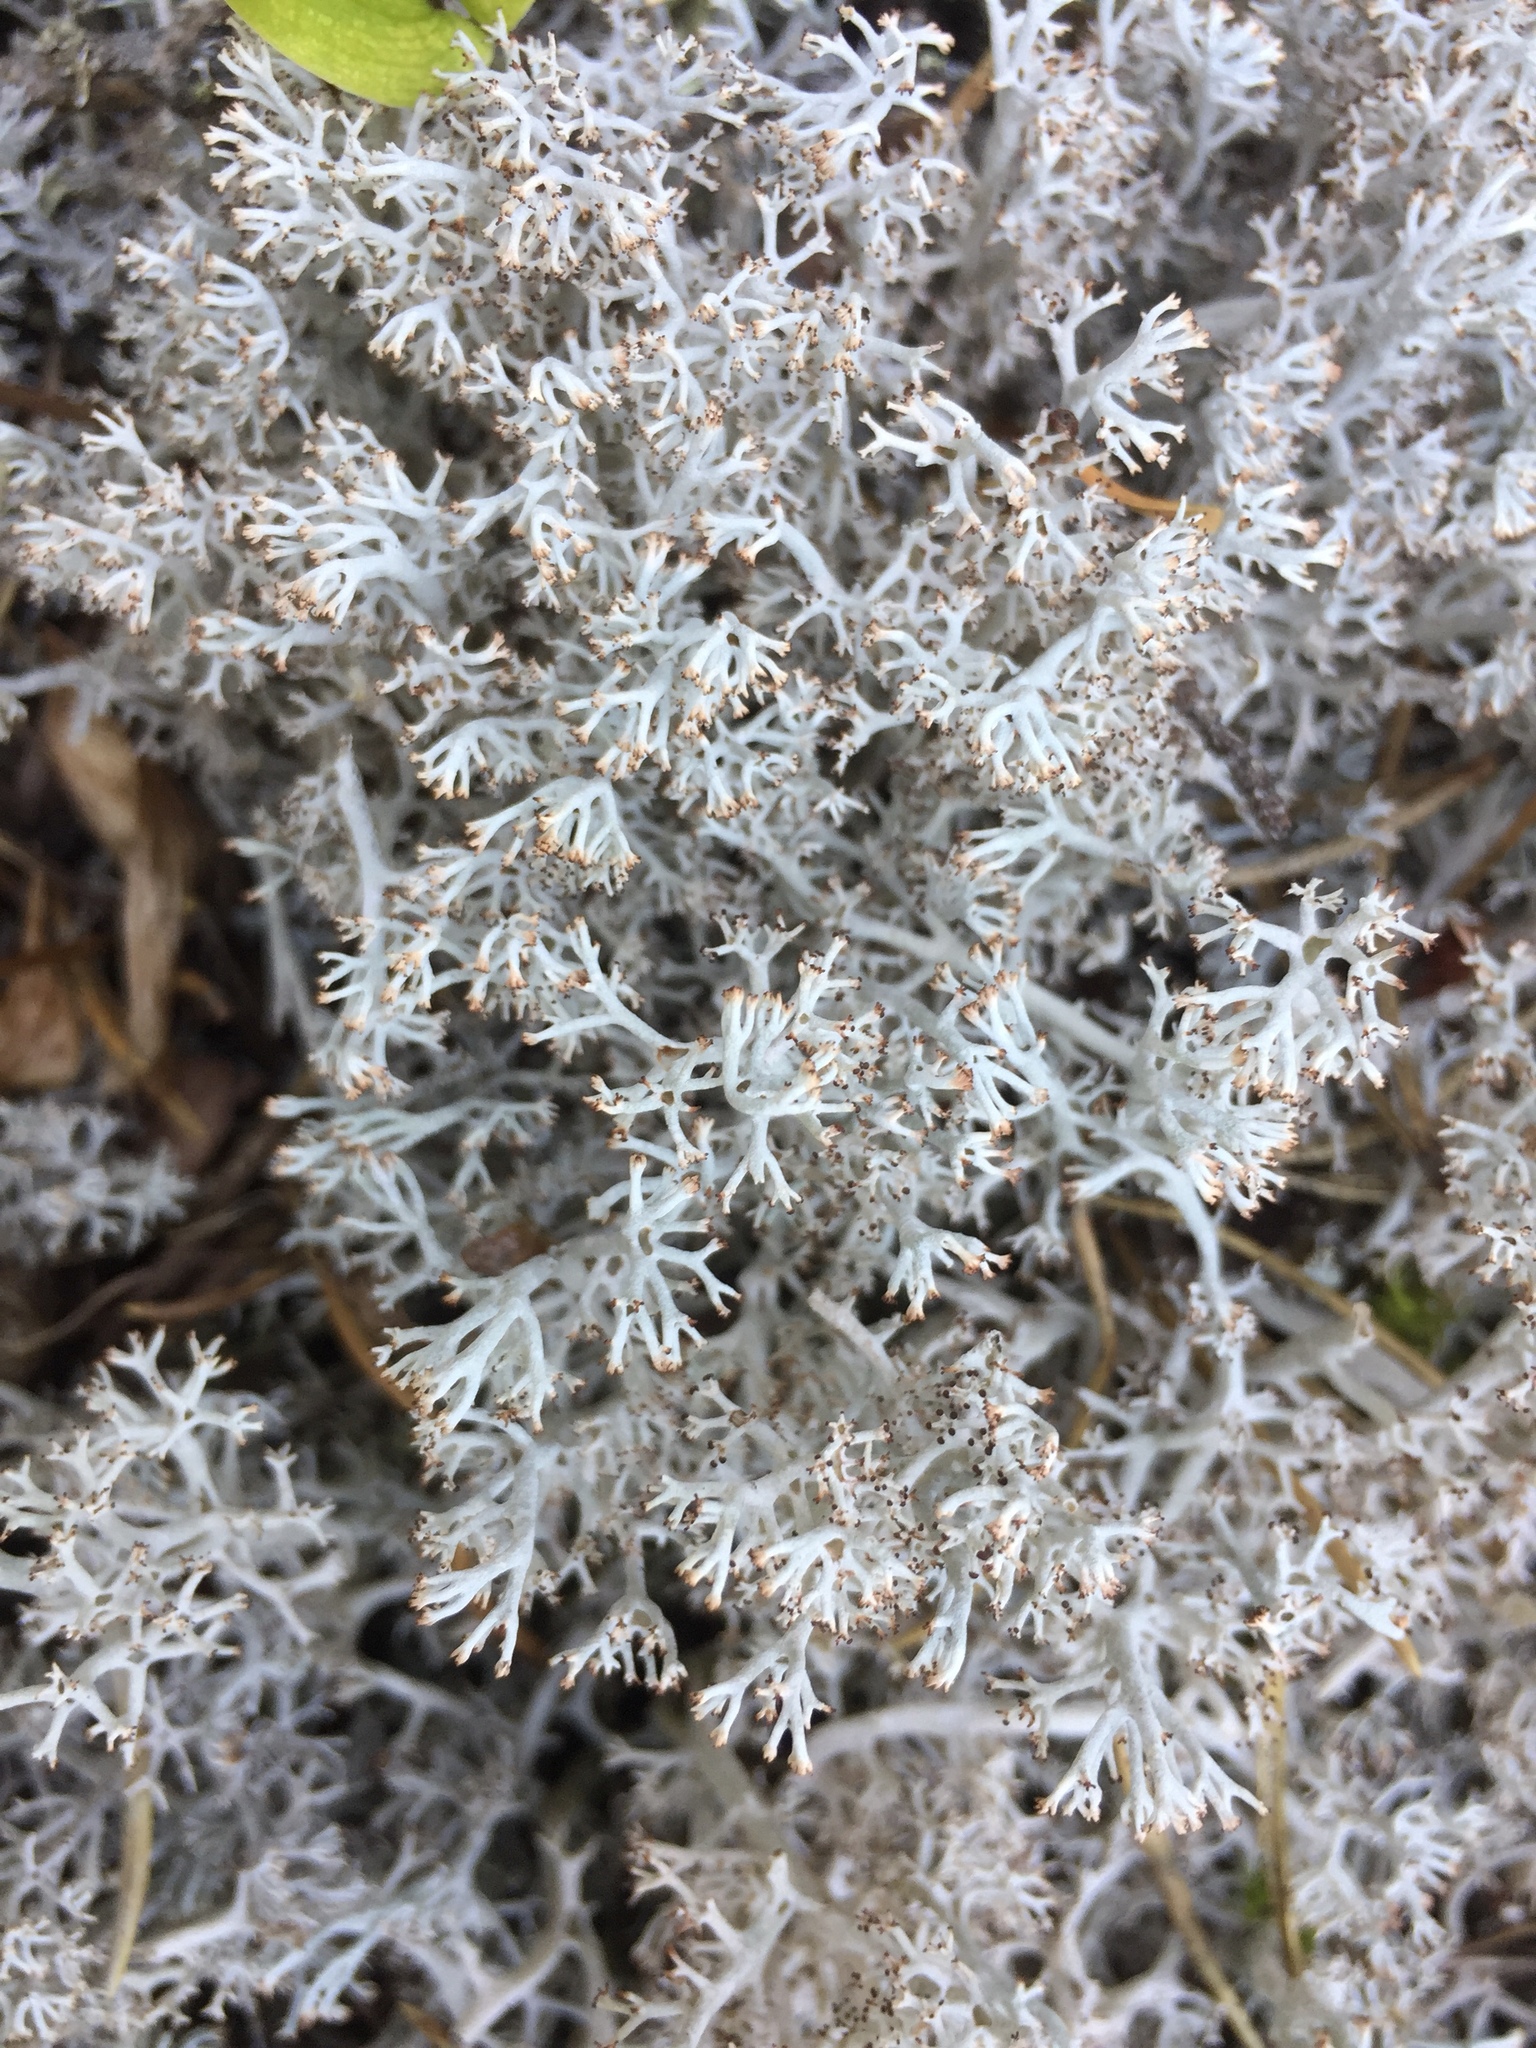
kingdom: Fungi
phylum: Ascomycota
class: Lecanoromycetes
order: Lecanorales
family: Cladoniaceae
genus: Cladonia
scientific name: Cladonia rangiferina
